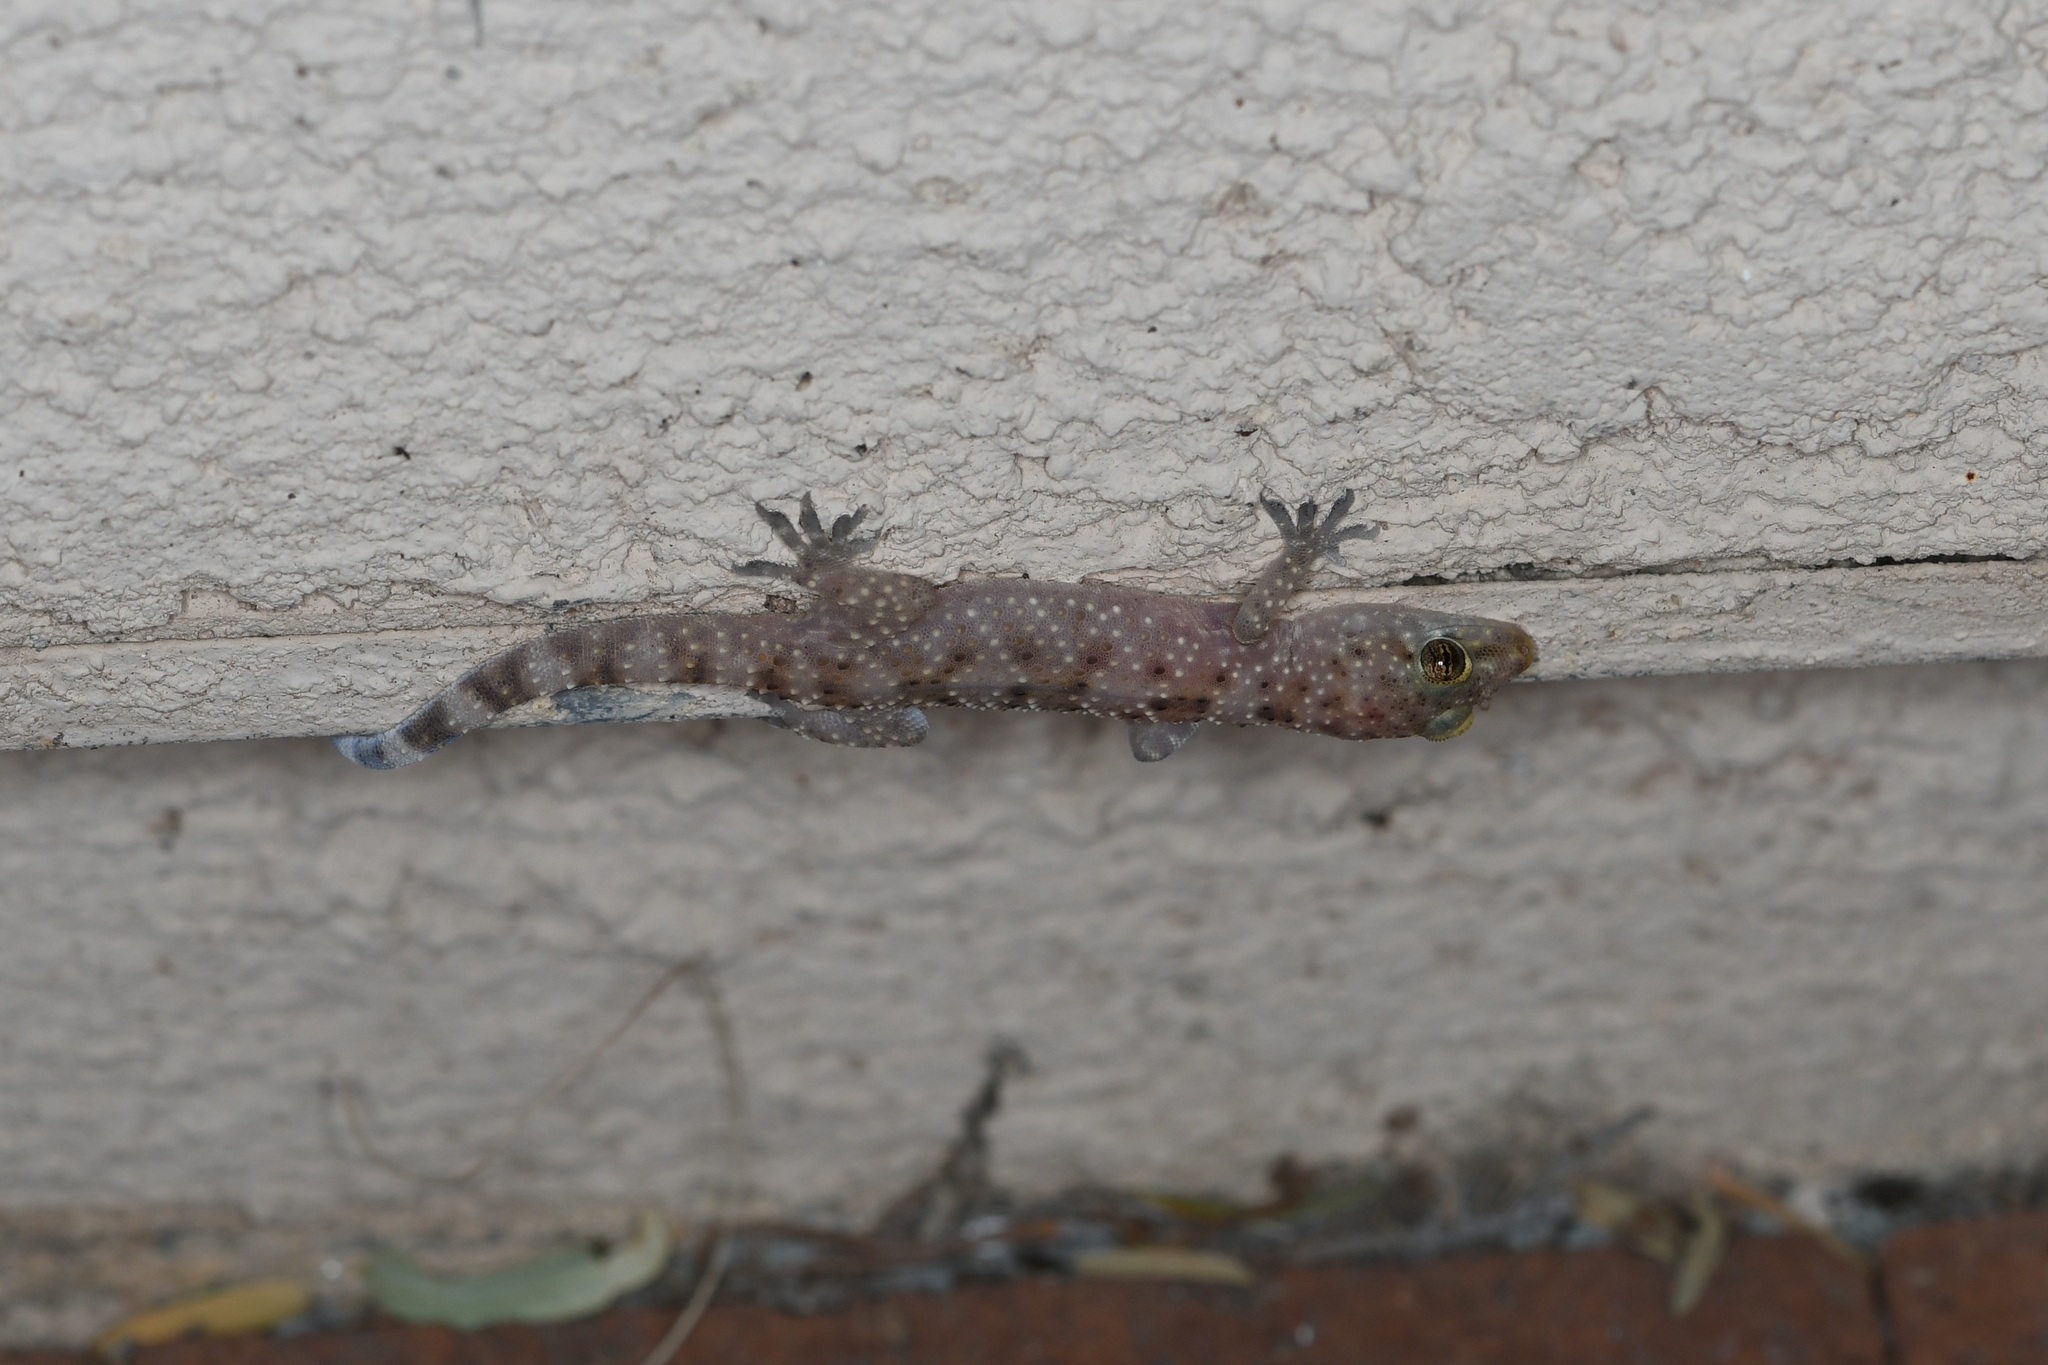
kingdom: Animalia
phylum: Chordata
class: Squamata
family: Gekkonidae
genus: Hemidactylus
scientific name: Hemidactylus turcicus
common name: Turkish gecko
